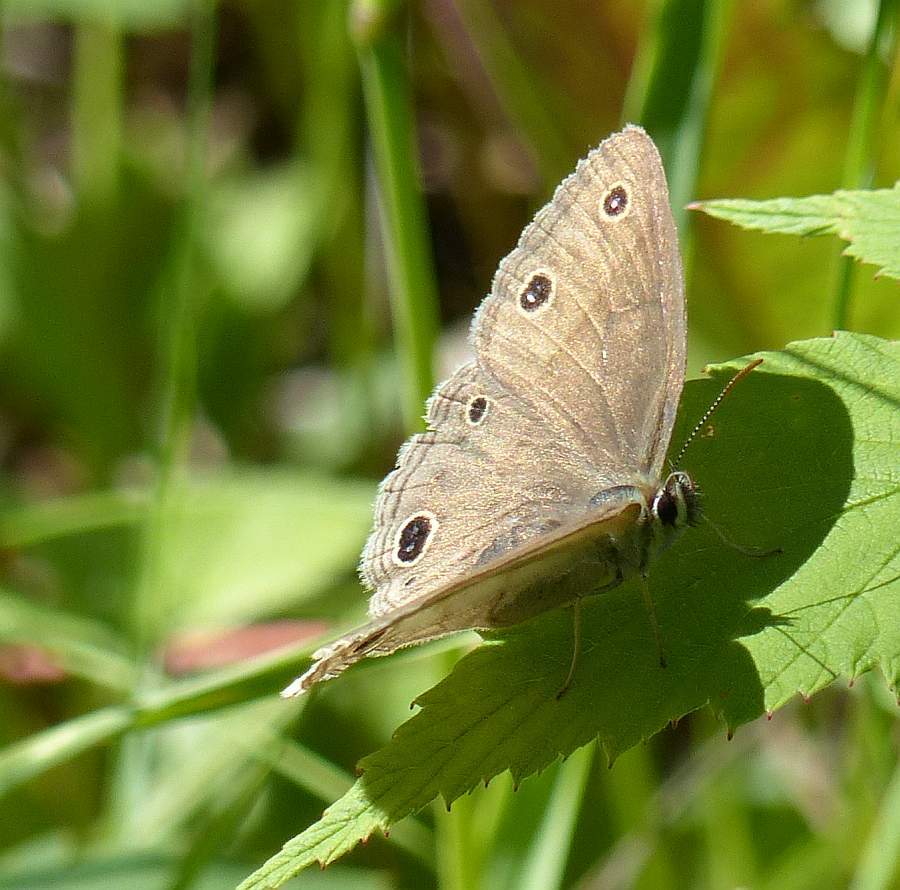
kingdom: Animalia
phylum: Arthropoda
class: Insecta
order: Lepidoptera
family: Nymphalidae
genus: Euptychia
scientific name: Euptychia cymela
